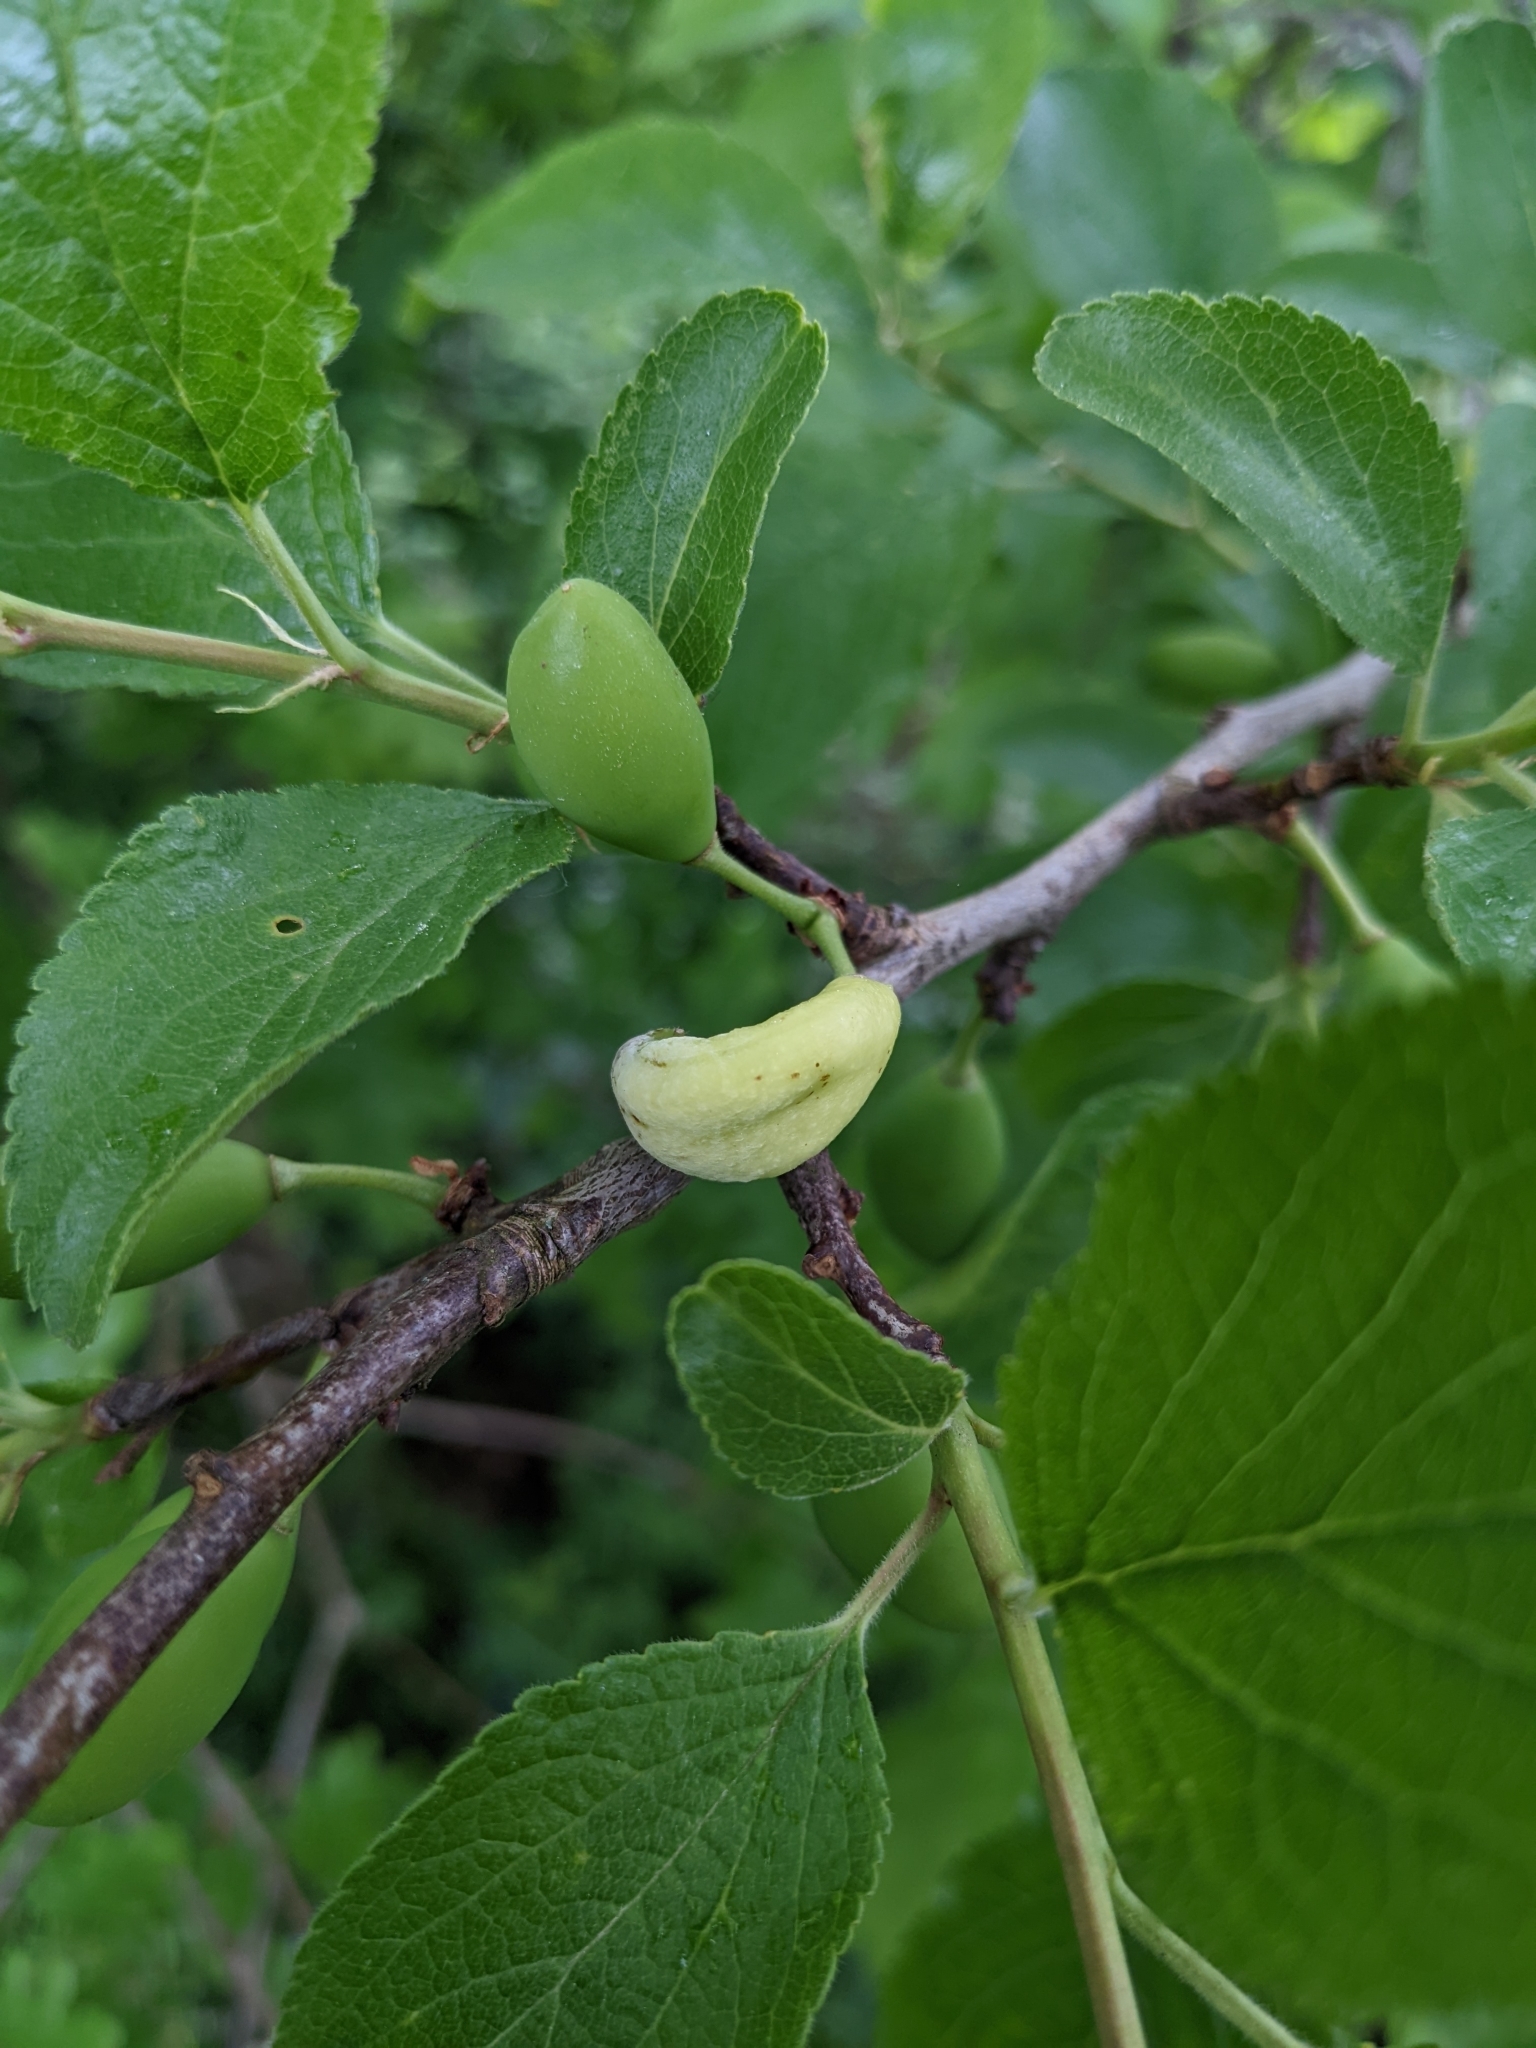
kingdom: Fungi
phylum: Ascomycota
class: Taphrinomycetes
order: Taphrinales
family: Taphrinaceae
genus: Taphrina
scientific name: Taphrina pruni
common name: Pocket plum
